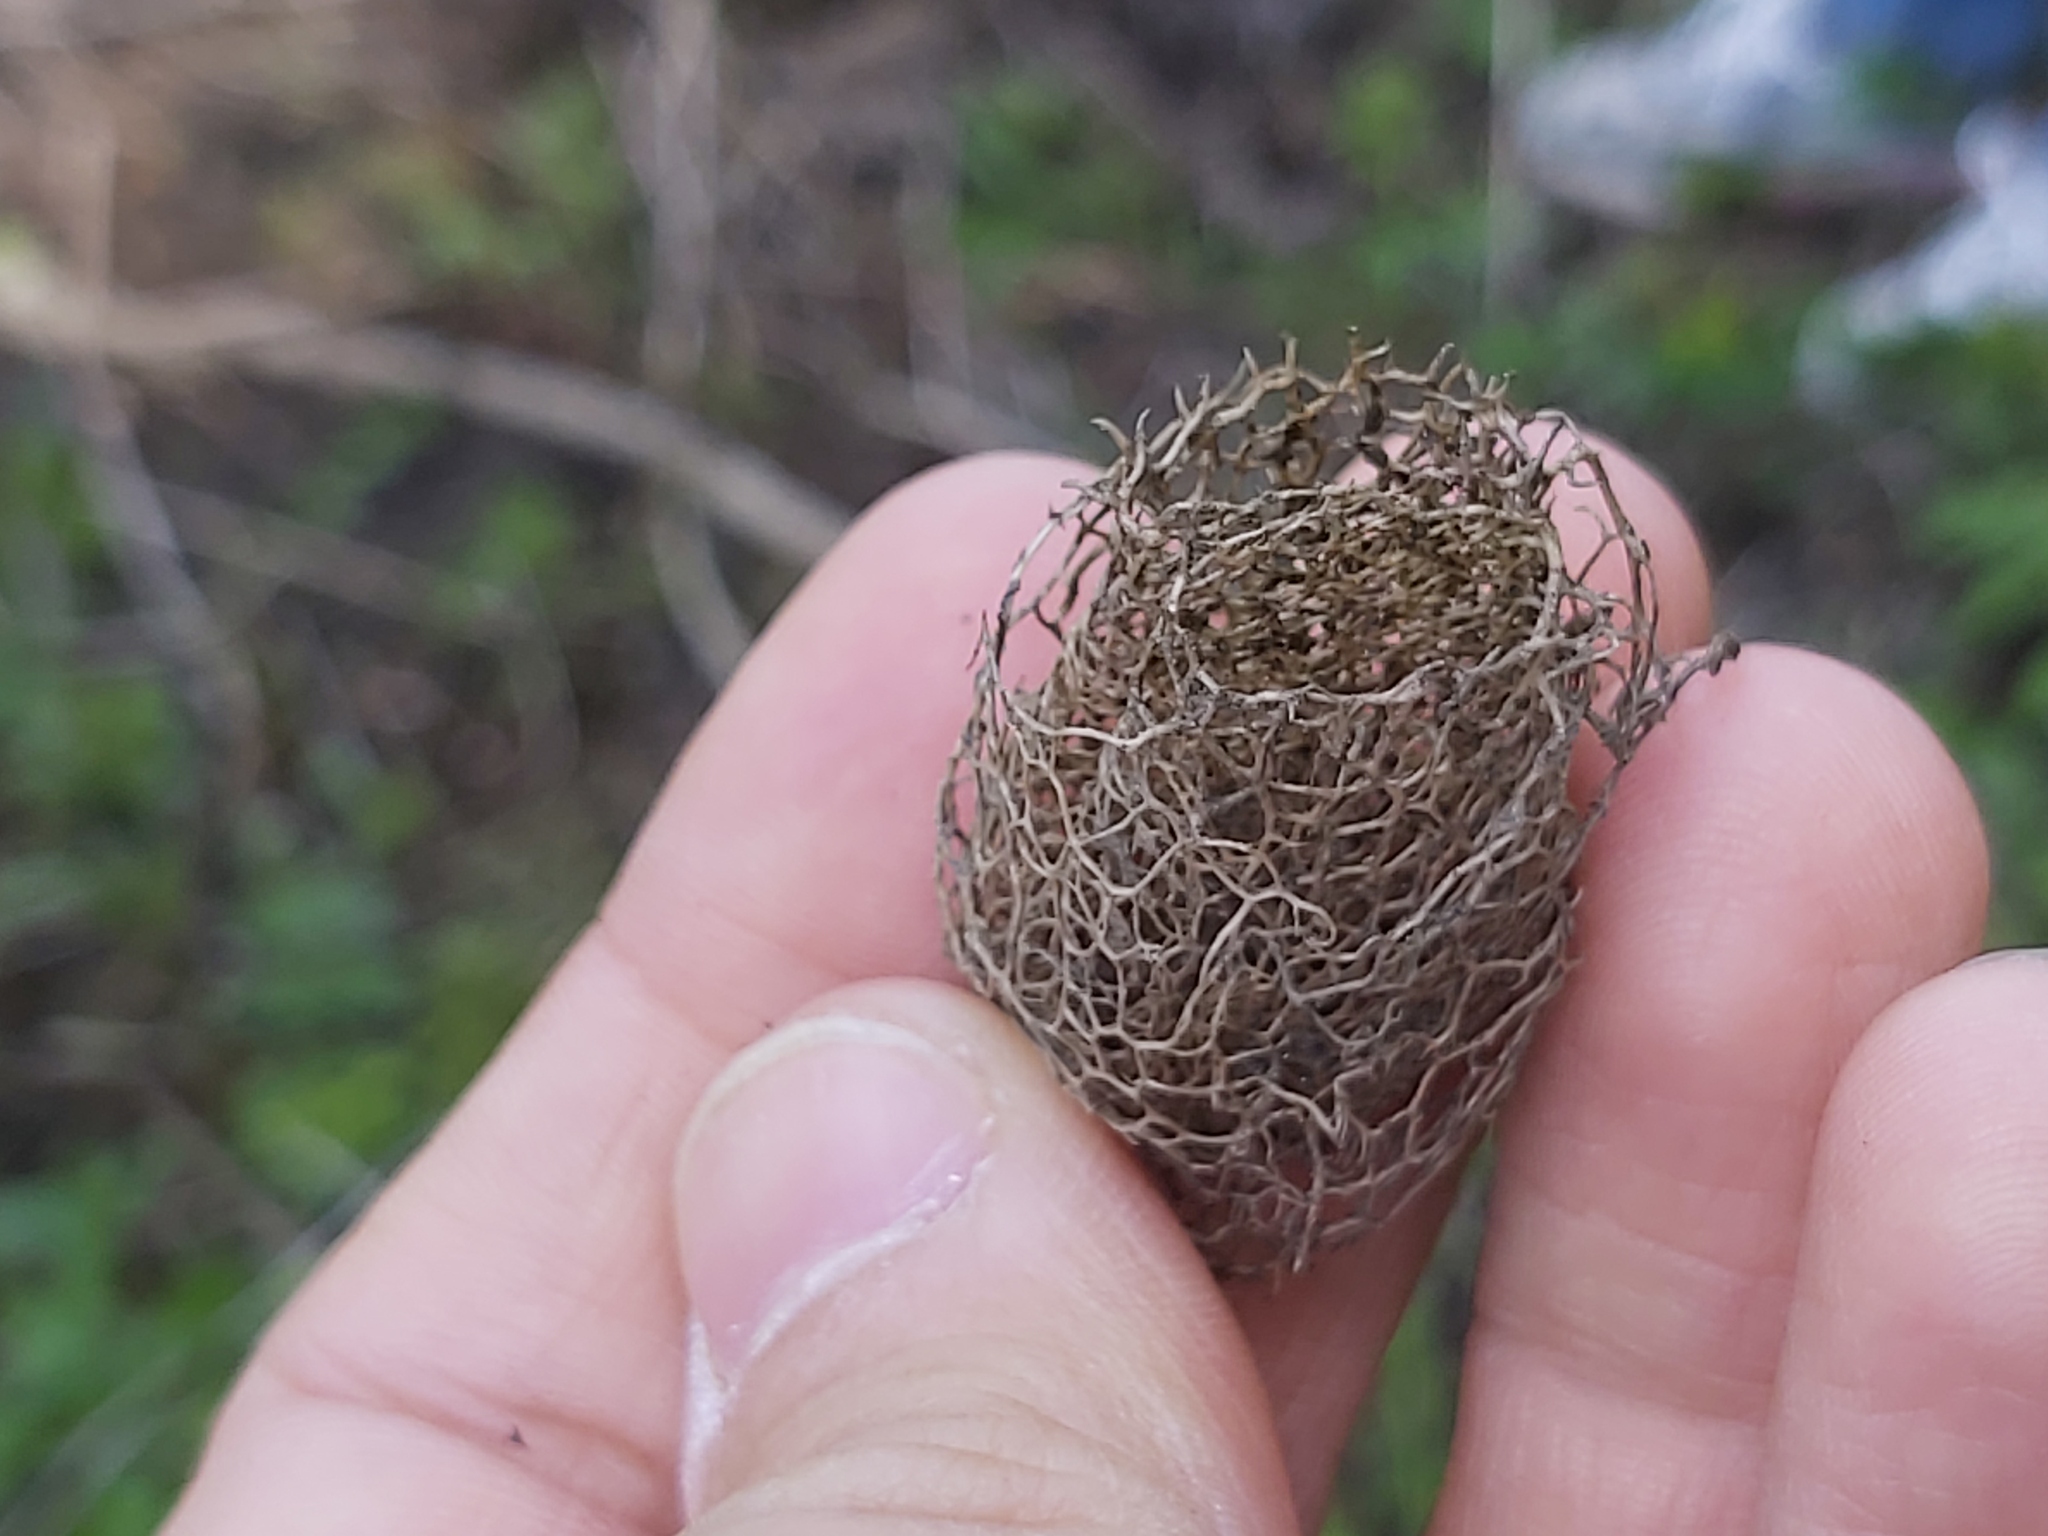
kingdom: Plantae
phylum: Tracheophyta
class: Magnoliopsida
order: Cucurbitales
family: Cucurbitaceae
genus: Echinocystis
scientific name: Echinocystis lobata
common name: Wild cucumber
